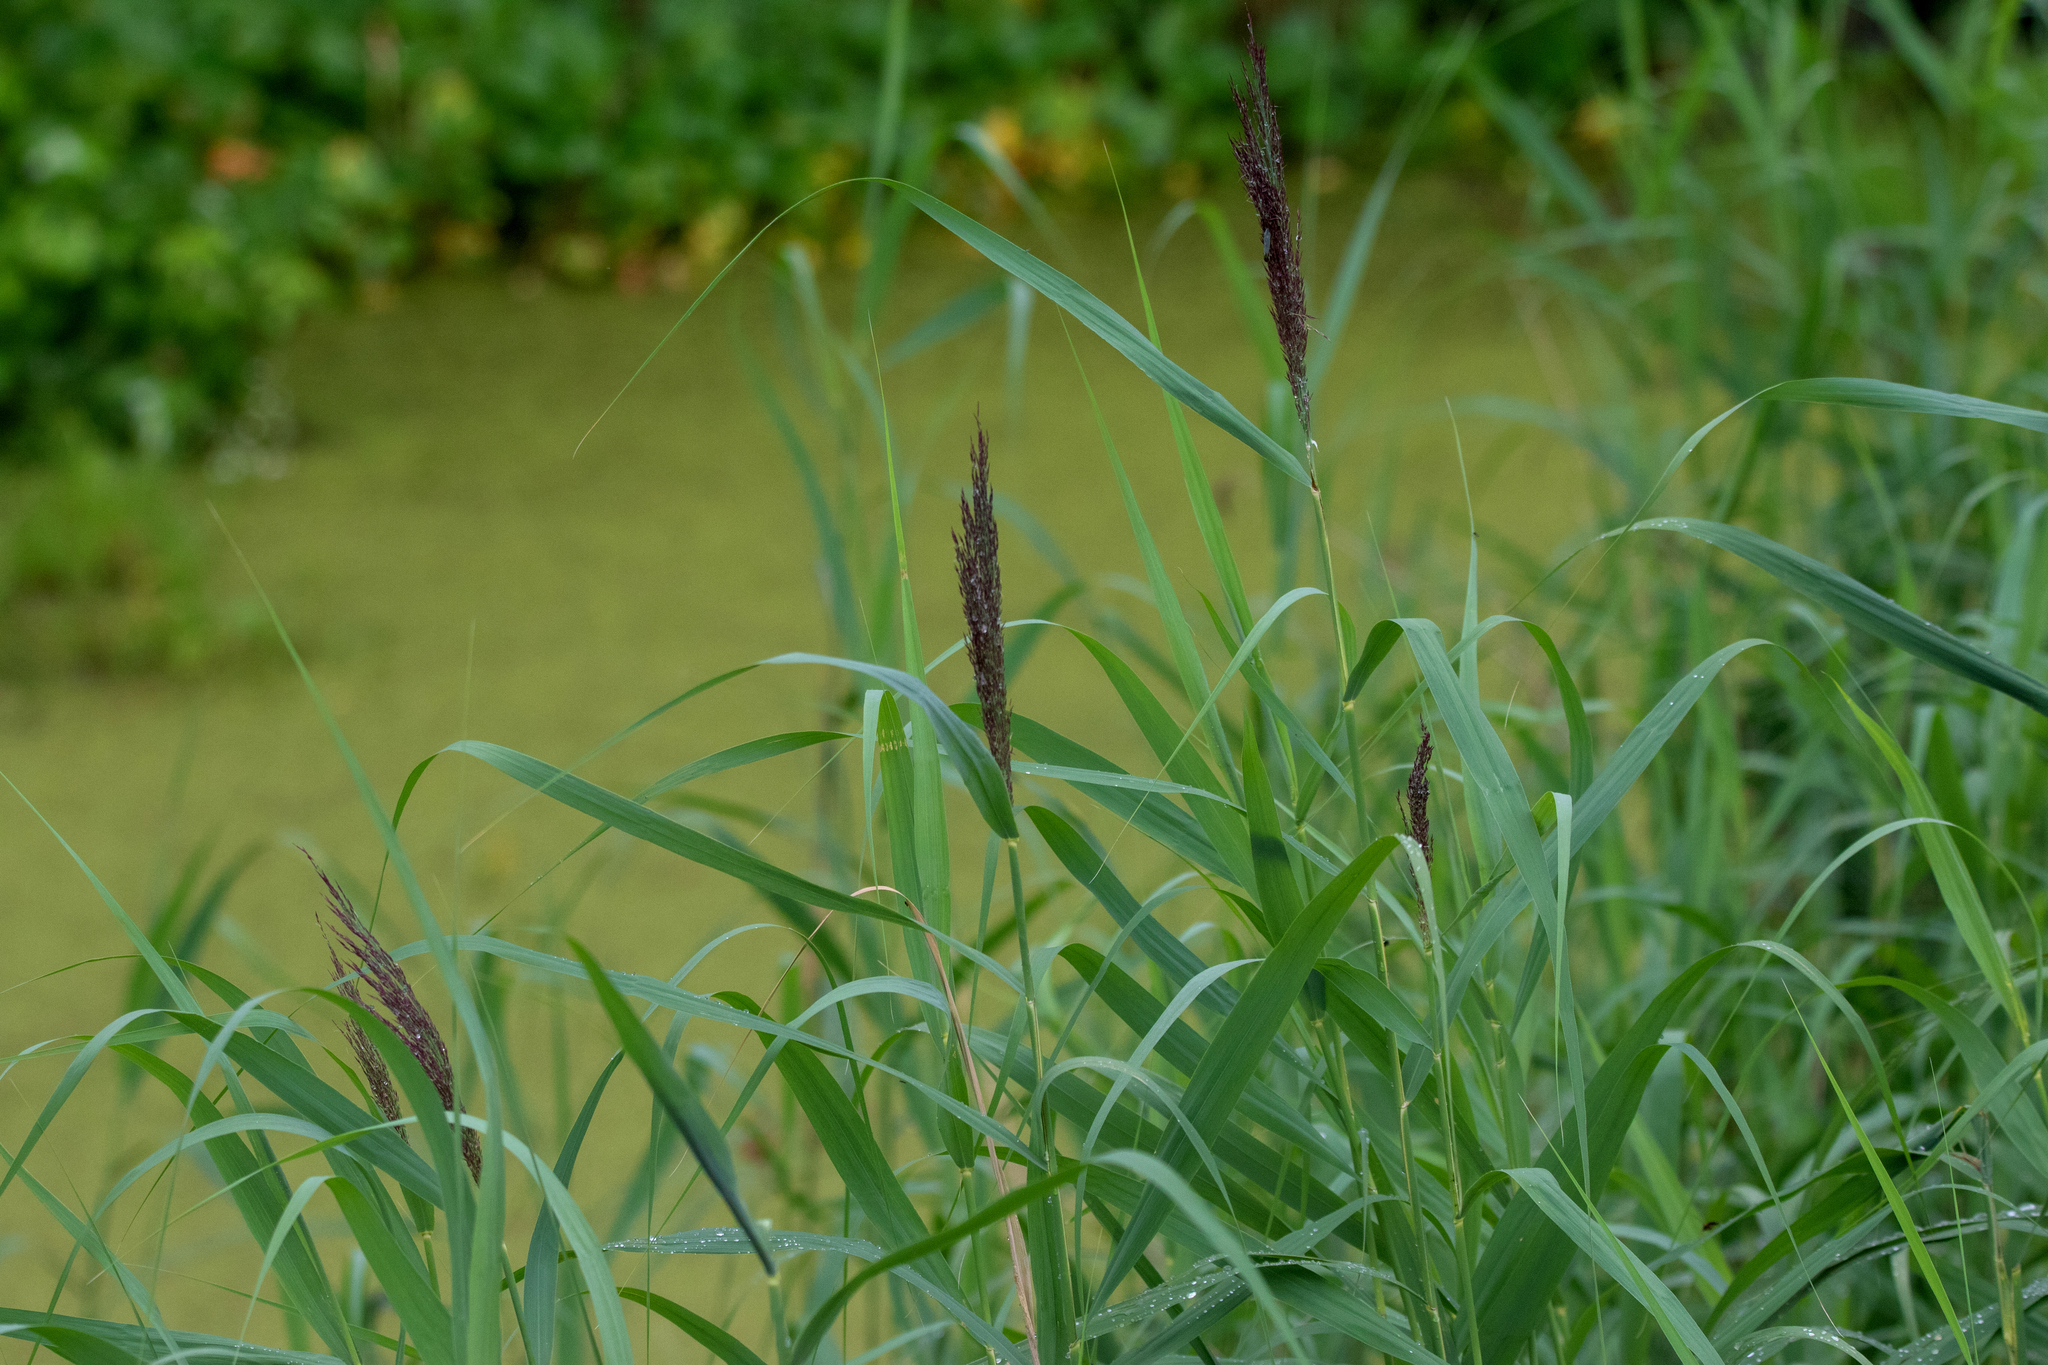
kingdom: Plantae
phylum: Tracheophyta
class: Liliopsida
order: Poales
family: Poaceae
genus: Phragmites
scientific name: Phragmites australis
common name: Common reed
